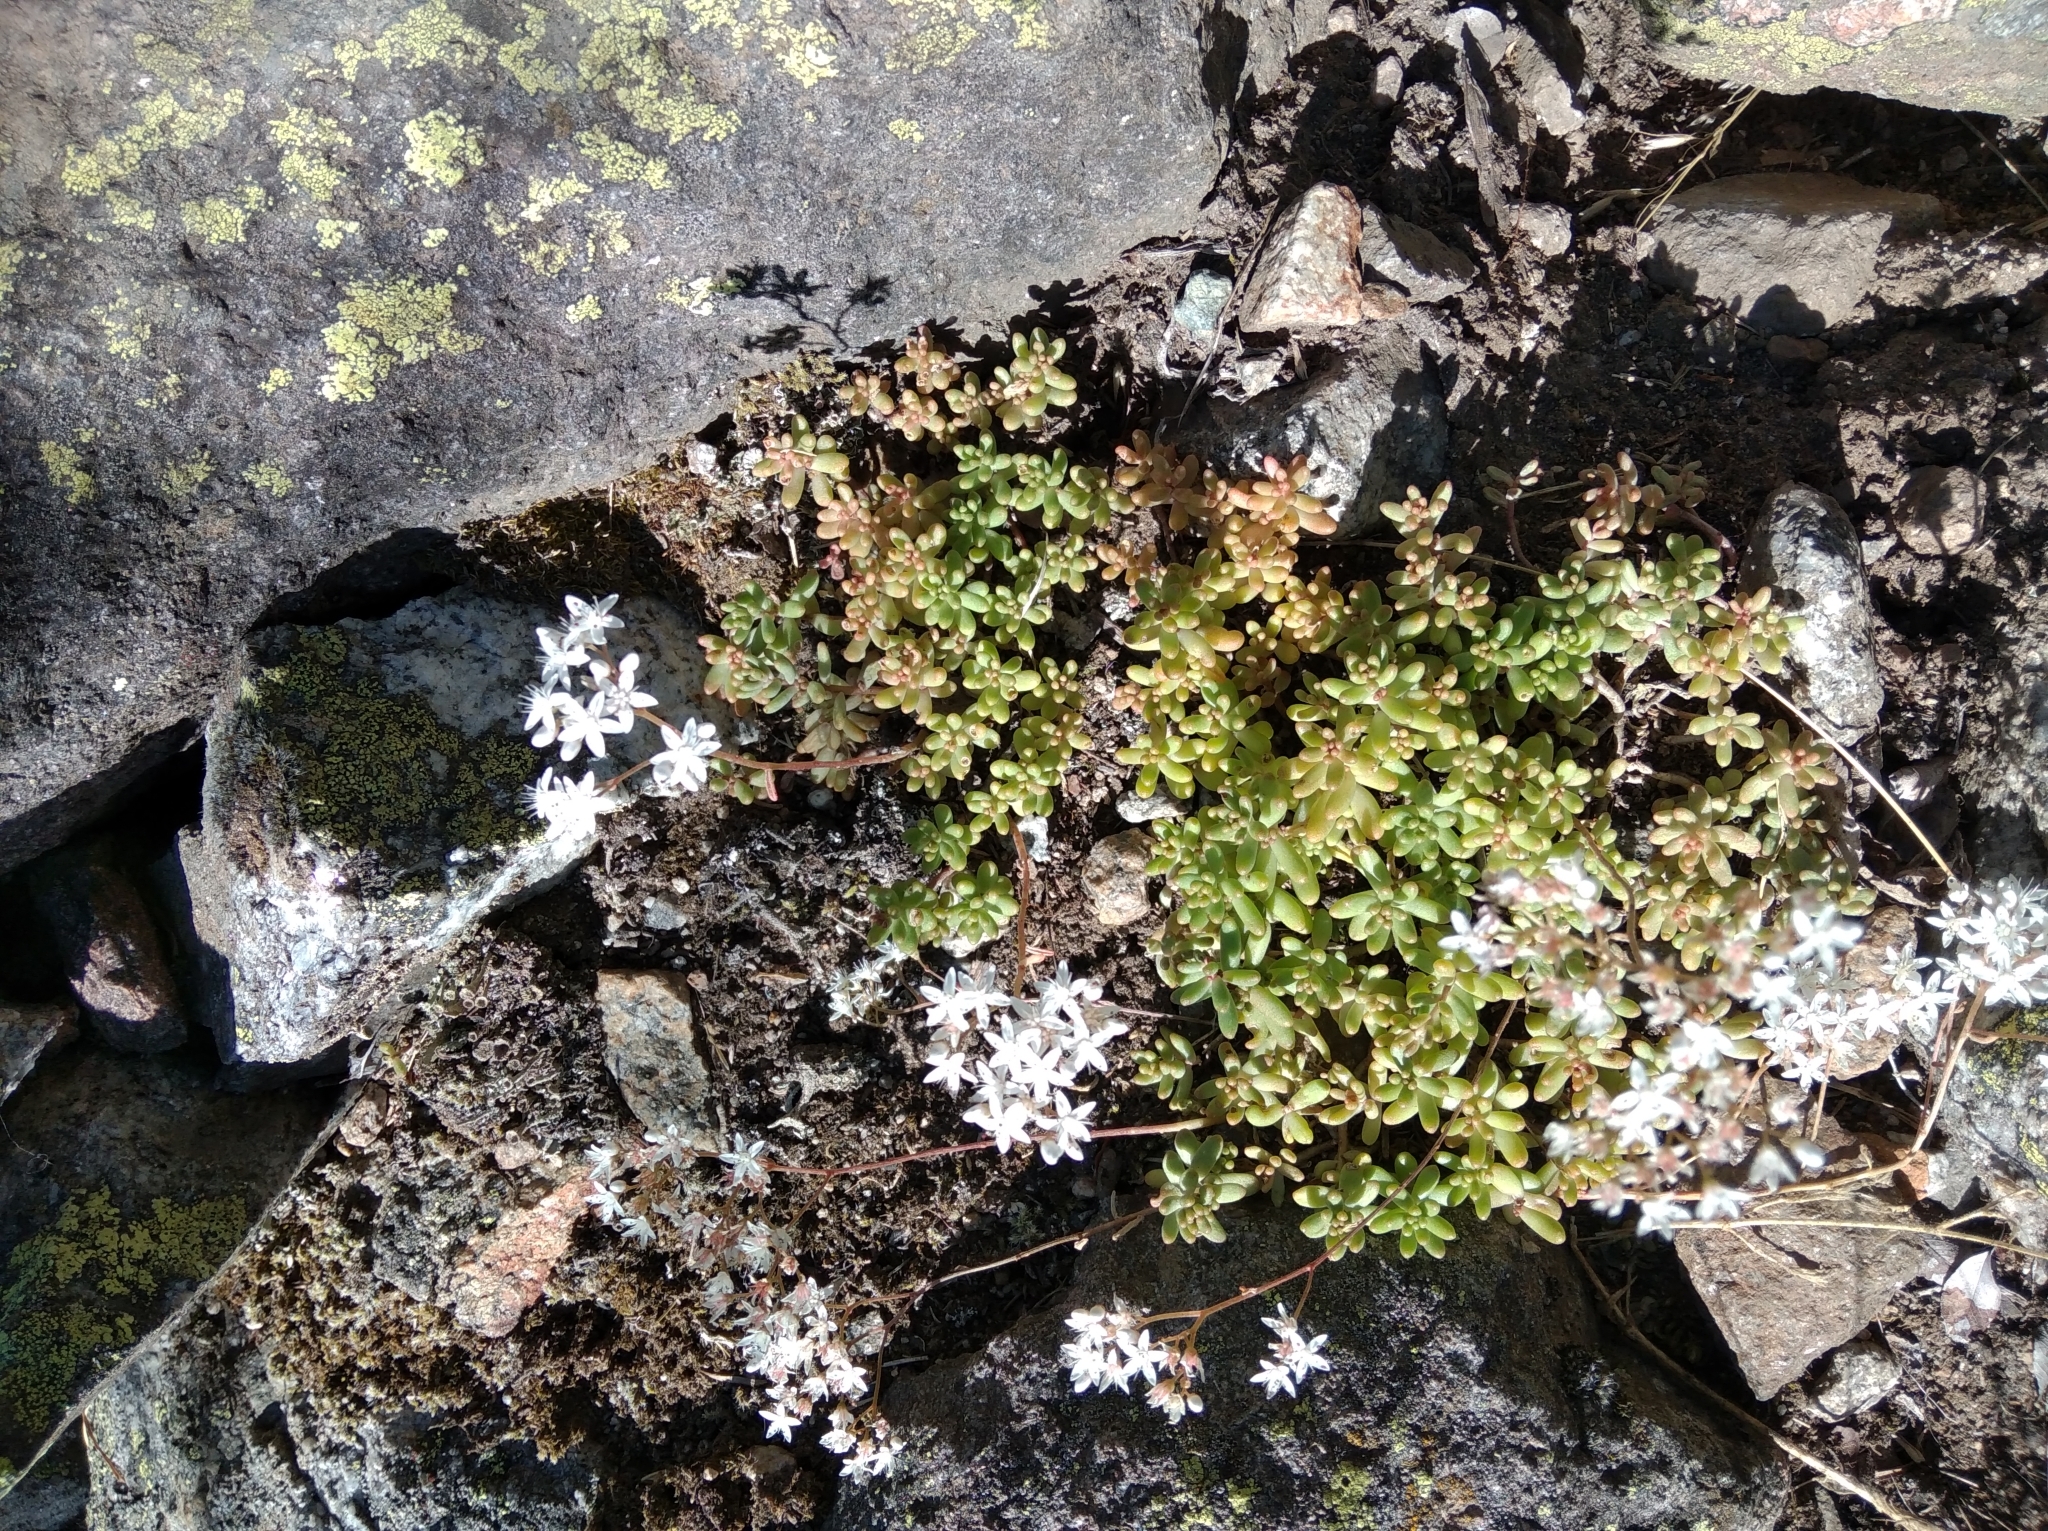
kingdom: Plantae
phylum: Tracheophyta
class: Magnoliopsida
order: Saxifragales
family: Crassulaceae
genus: Sedum
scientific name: Sedum album
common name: White stonecrop
